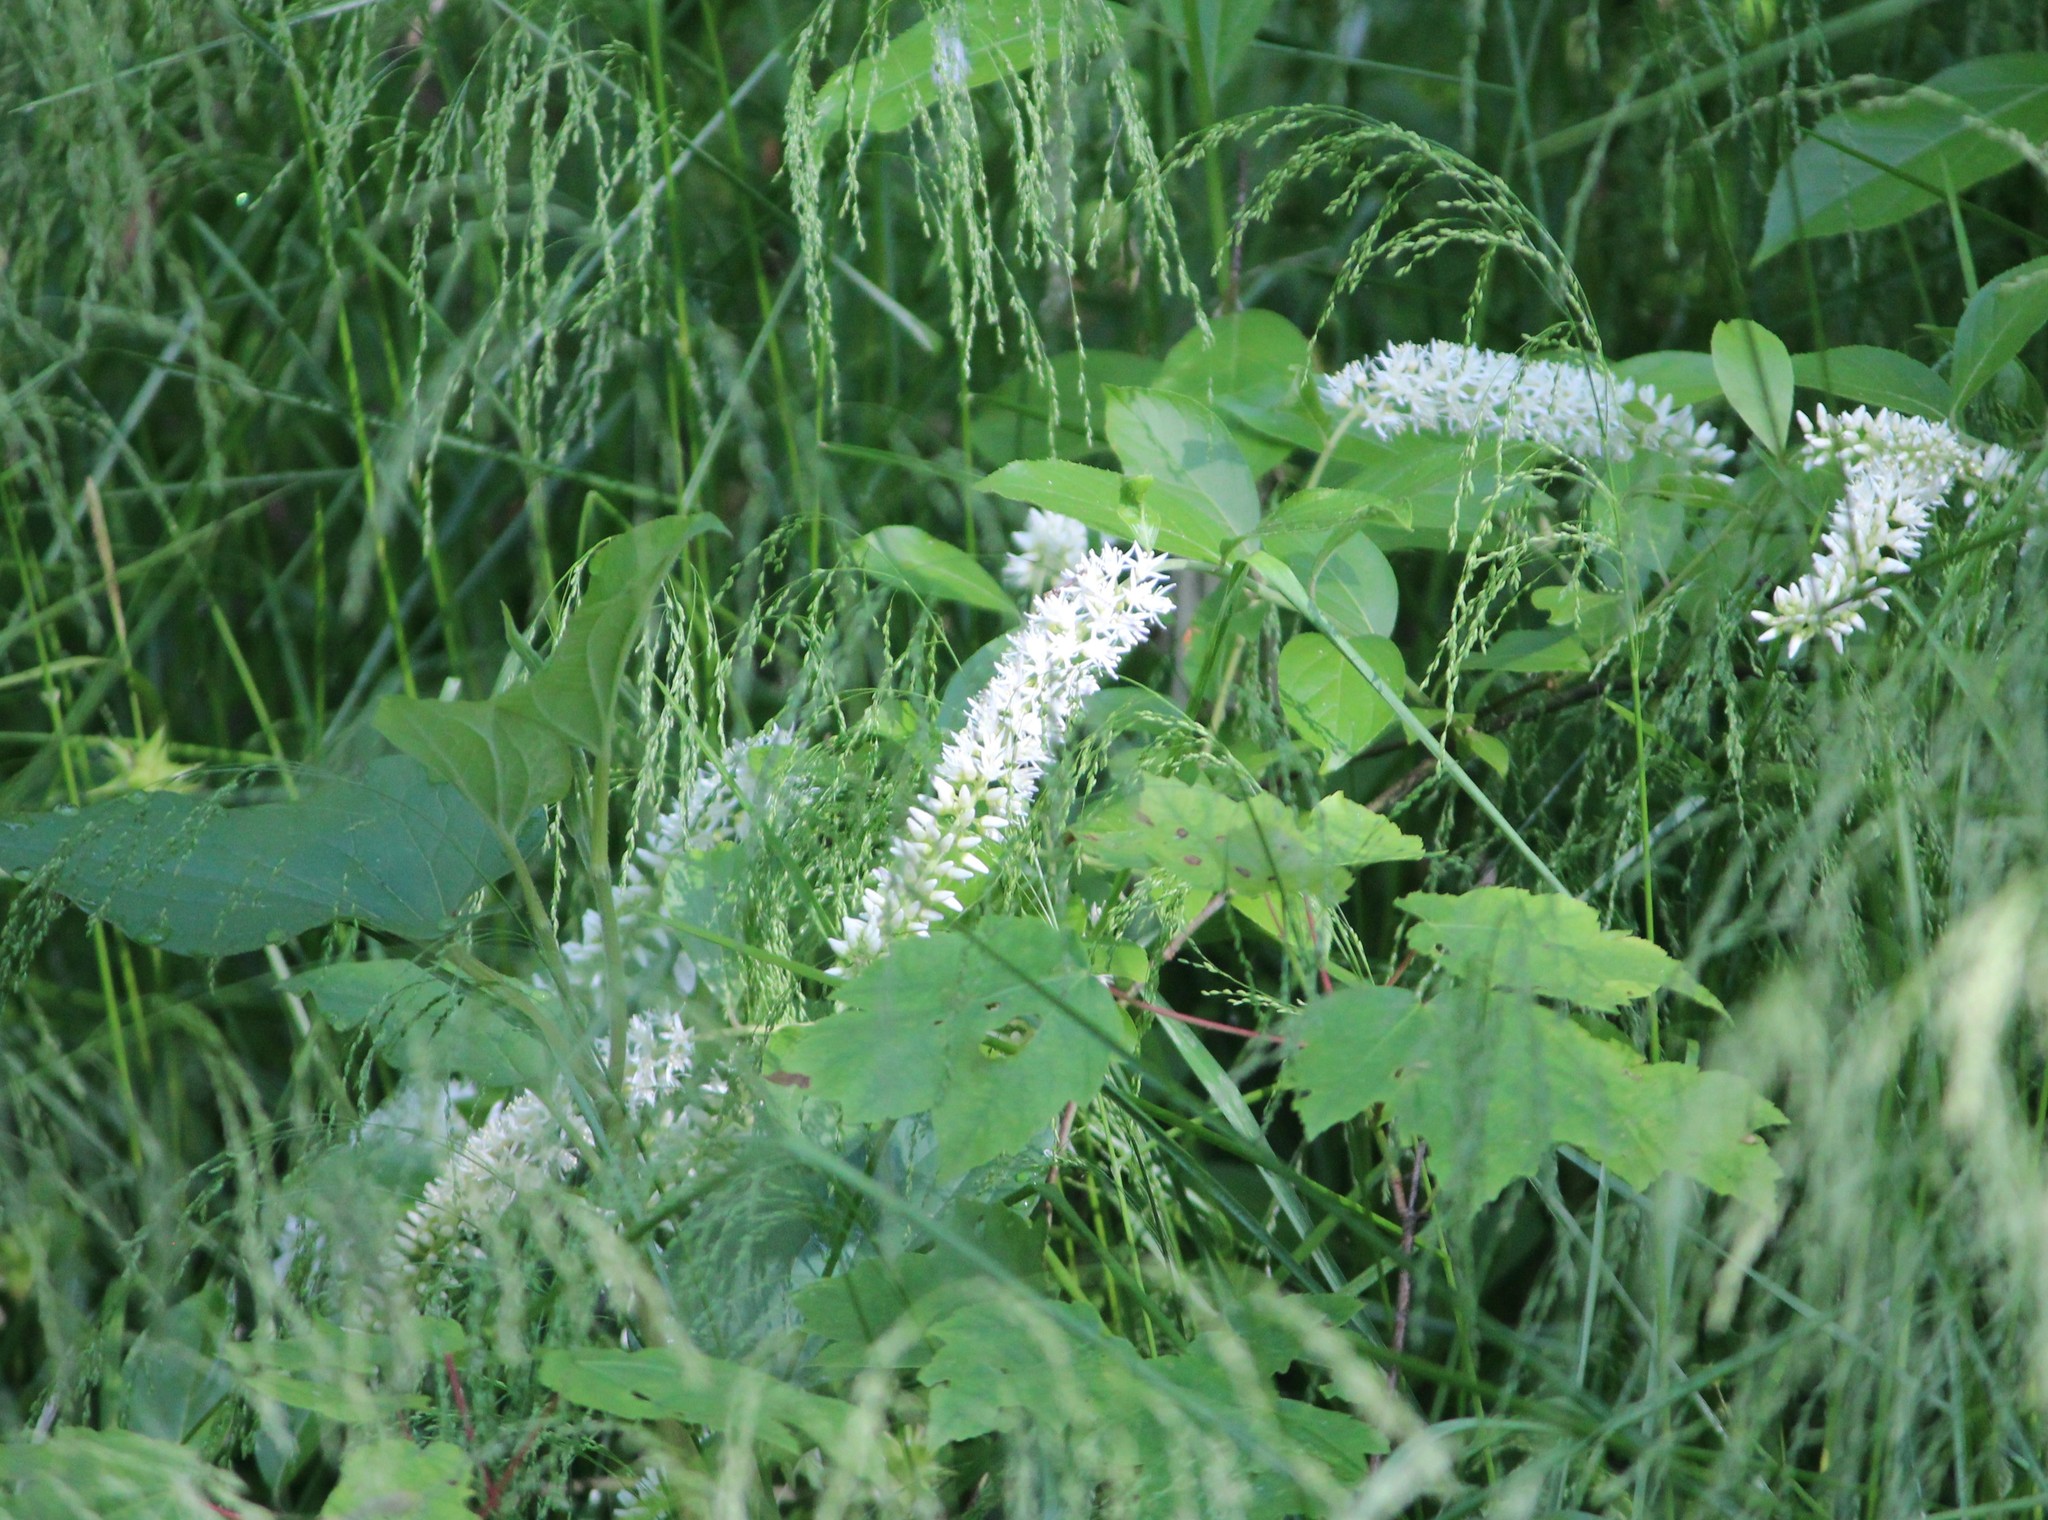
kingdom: Plantae
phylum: Tracheophyta
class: Magnoliopsida
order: Saxifragales
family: Iteaceae
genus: Itea
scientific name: Itea virginica
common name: Sweetspire
